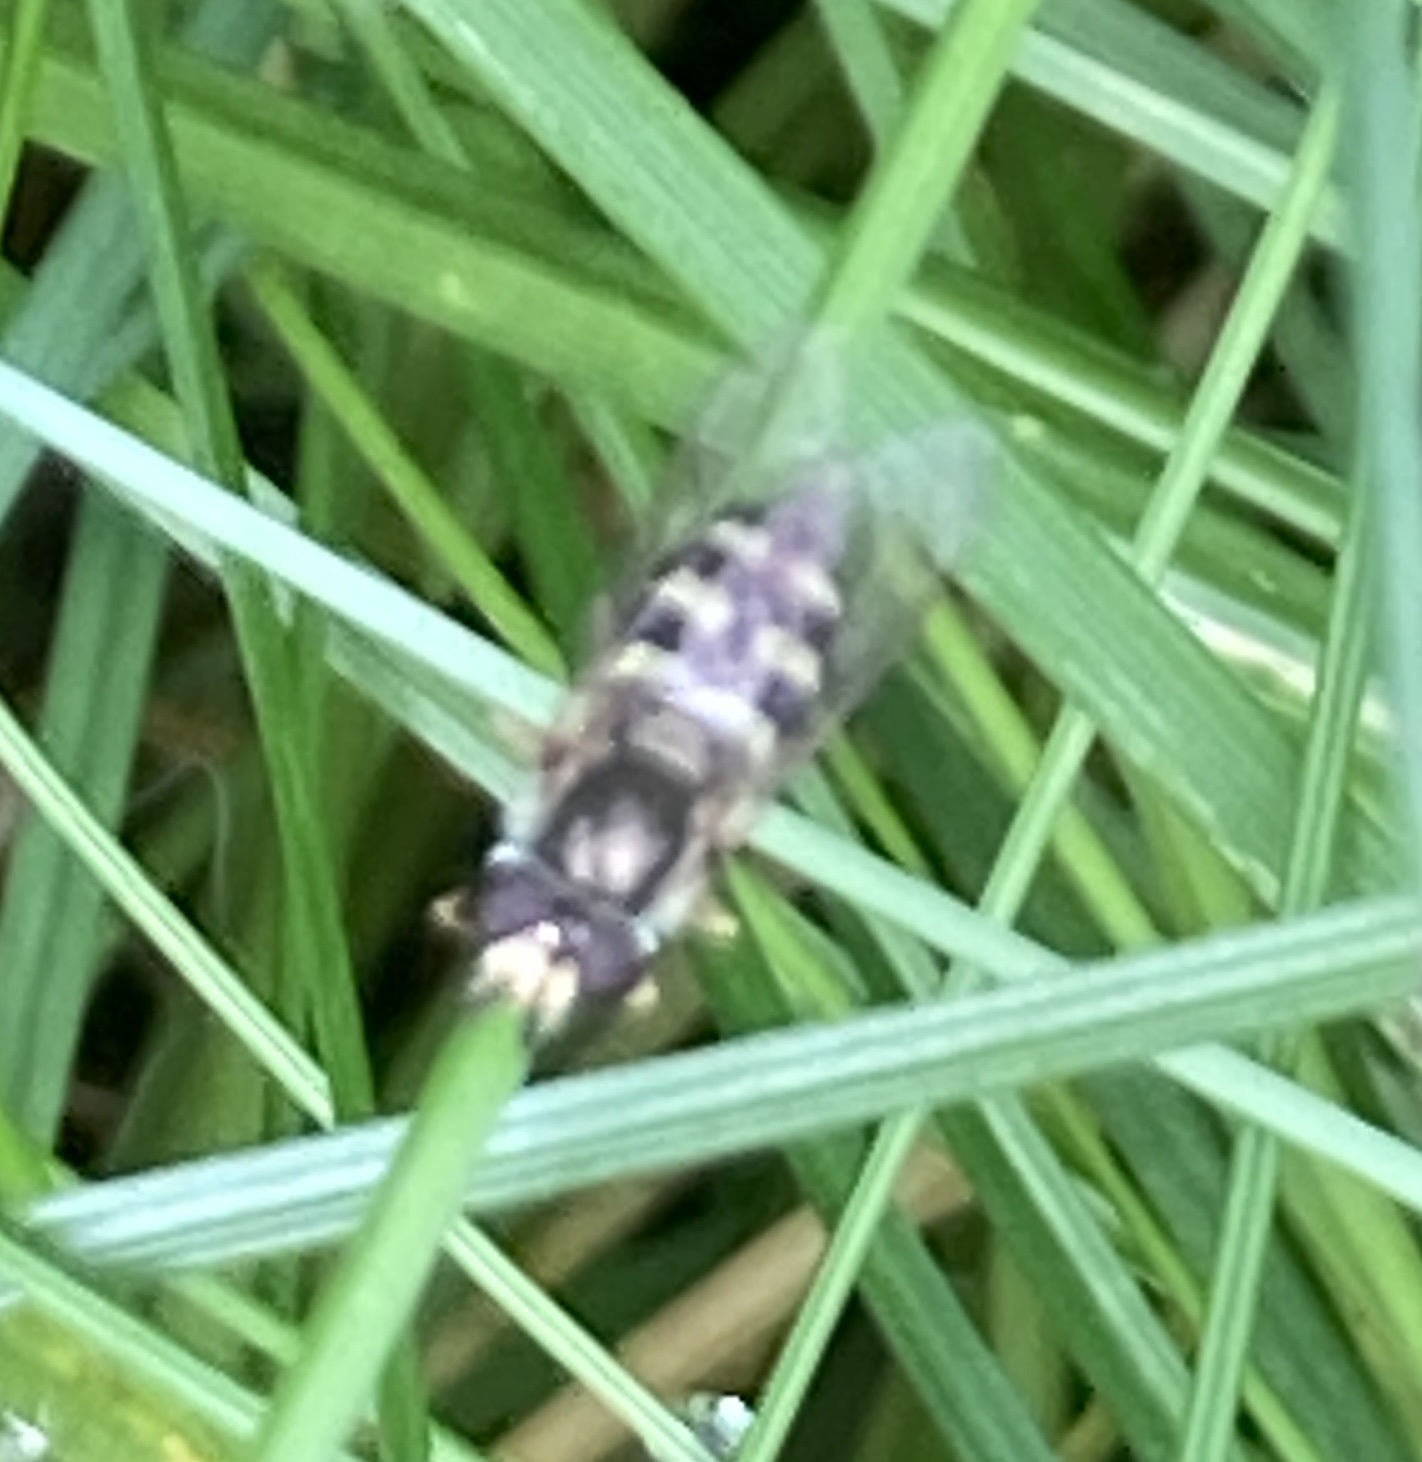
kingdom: Animalia
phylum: Arthropoda
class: Insecta
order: Diptera
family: Syrphidae
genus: Eupeodes
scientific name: Eupeodes
